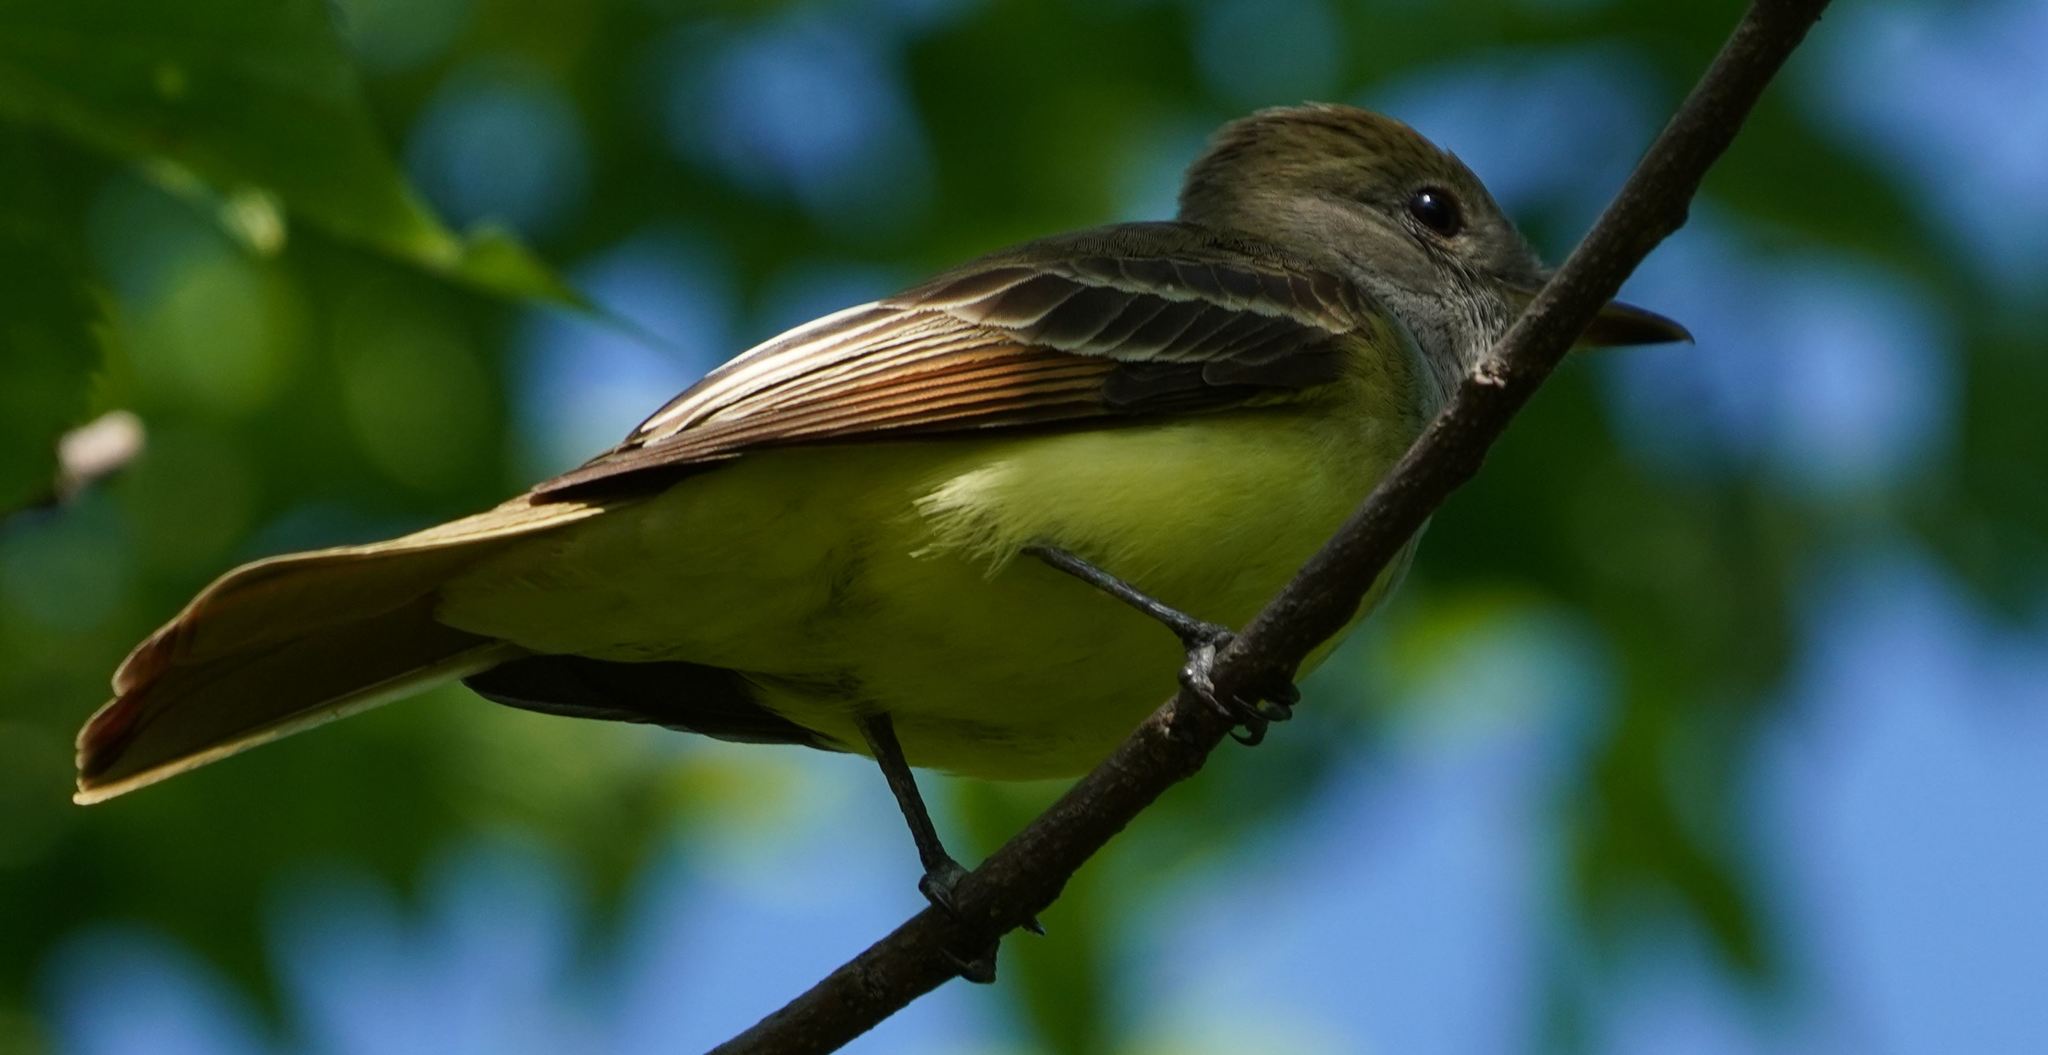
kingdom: Animalia
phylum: Chordata
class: Aves
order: Passeriformes
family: Tyrannidae
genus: Myiarchus
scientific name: Myiarchus crinitus
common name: Great crested flycatcher
